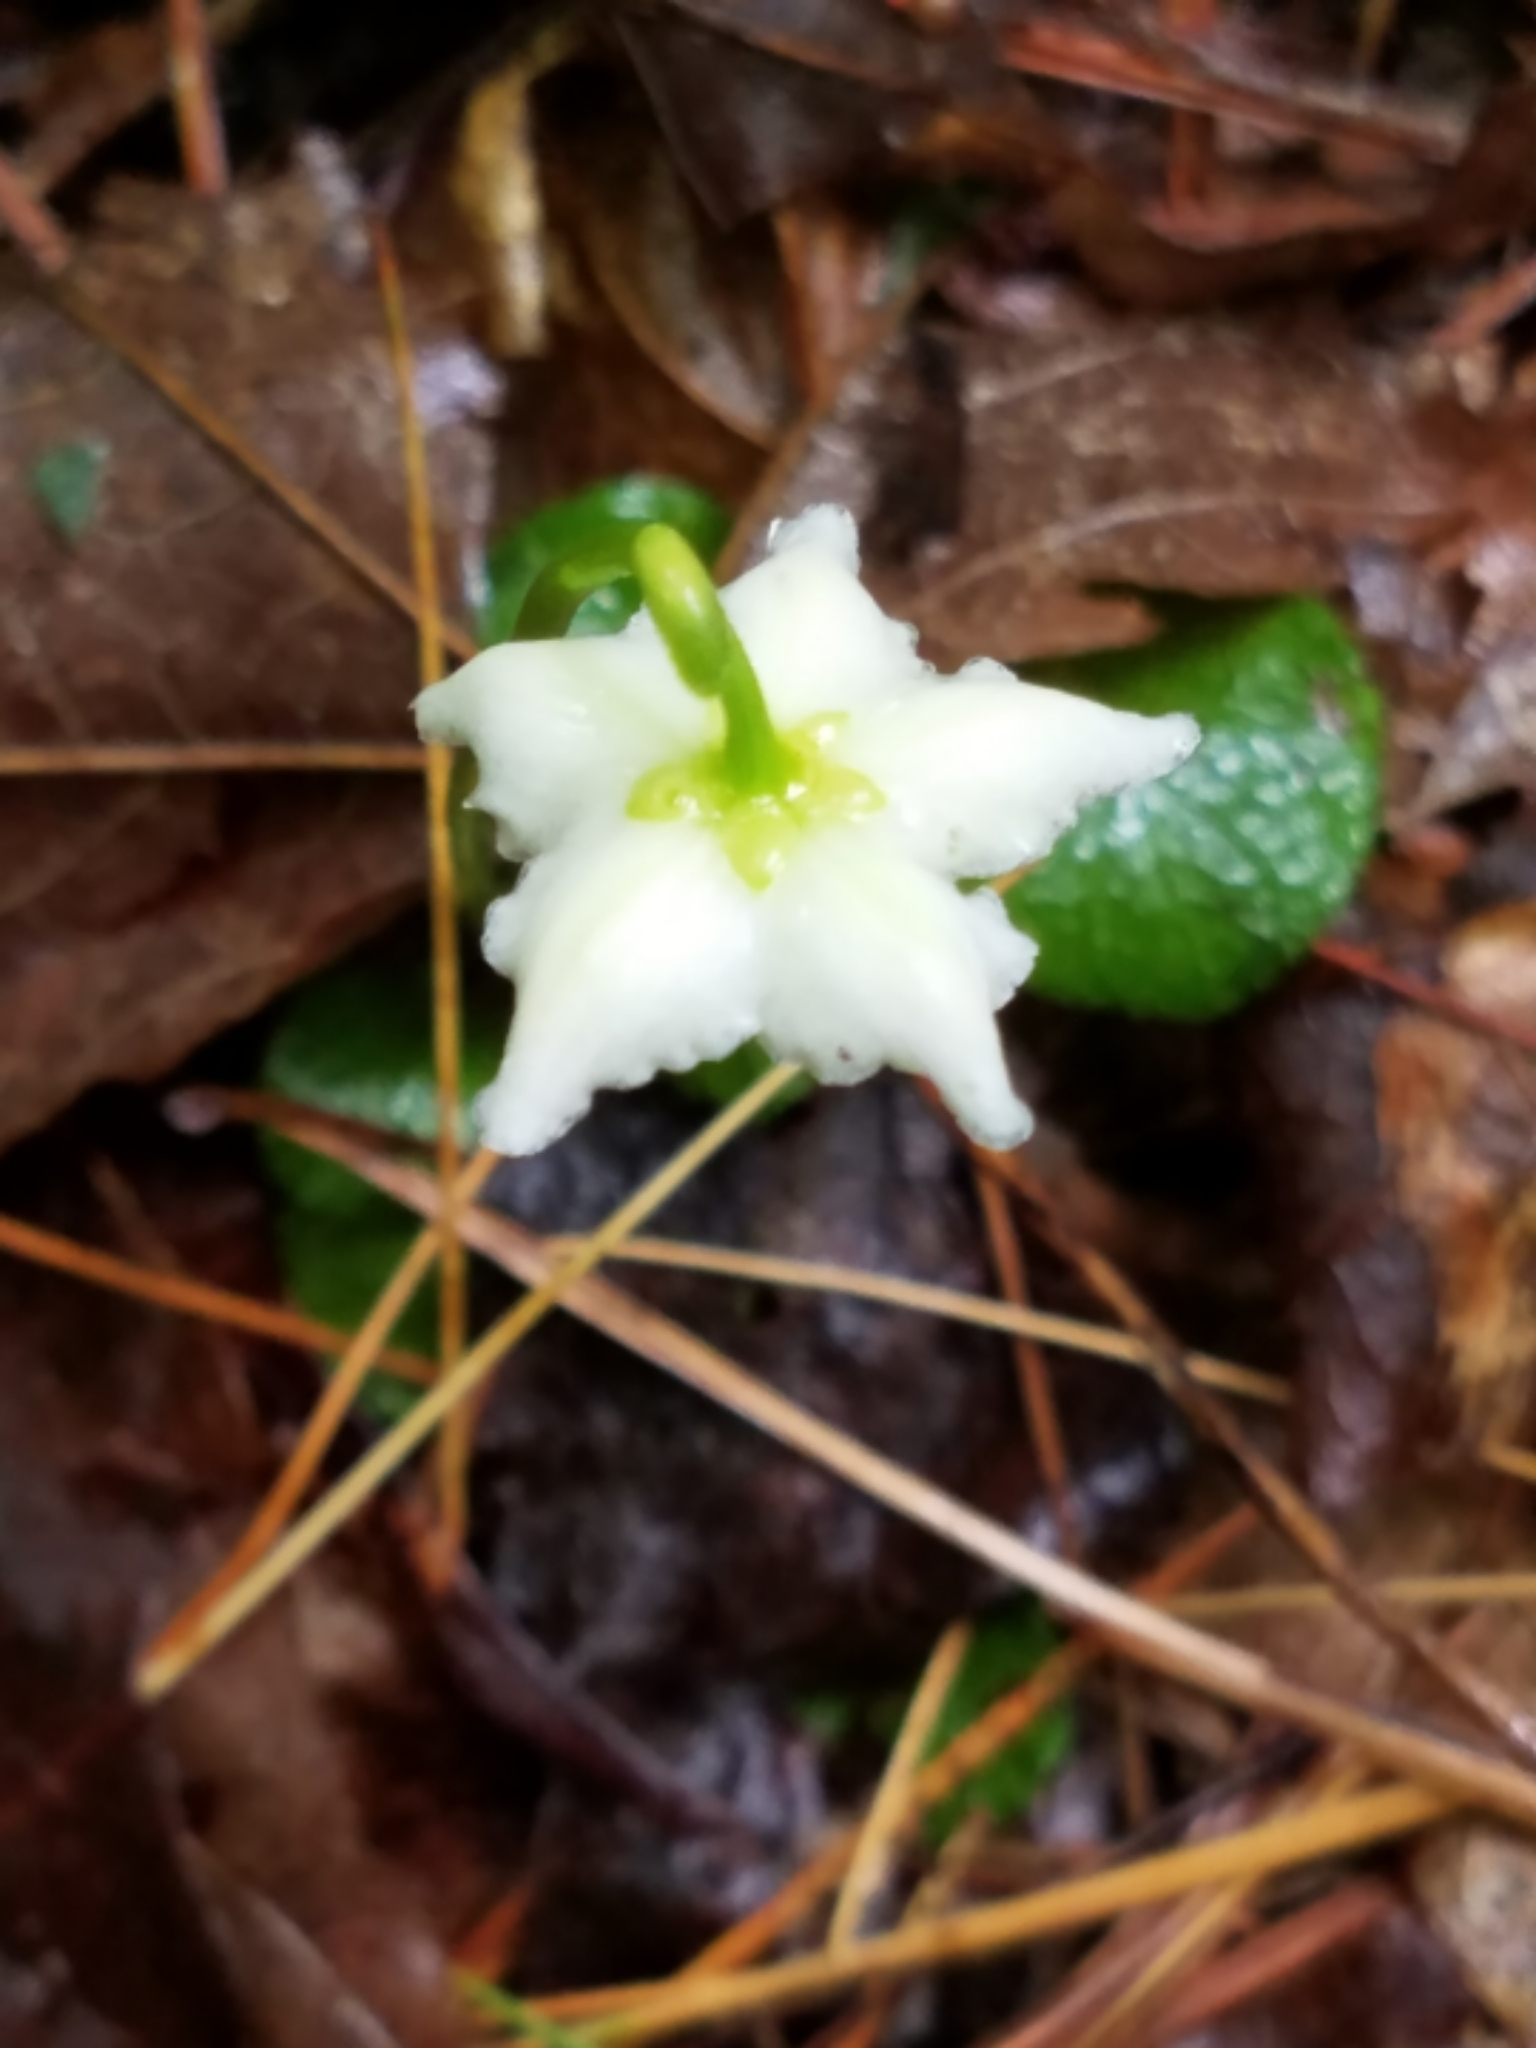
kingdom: Plantae
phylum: Tracheophyta
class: Magnoliopsida
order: Ericales
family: Ericaceae
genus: Moneses
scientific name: Moneses uniflora
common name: One-flowered wintergreen
